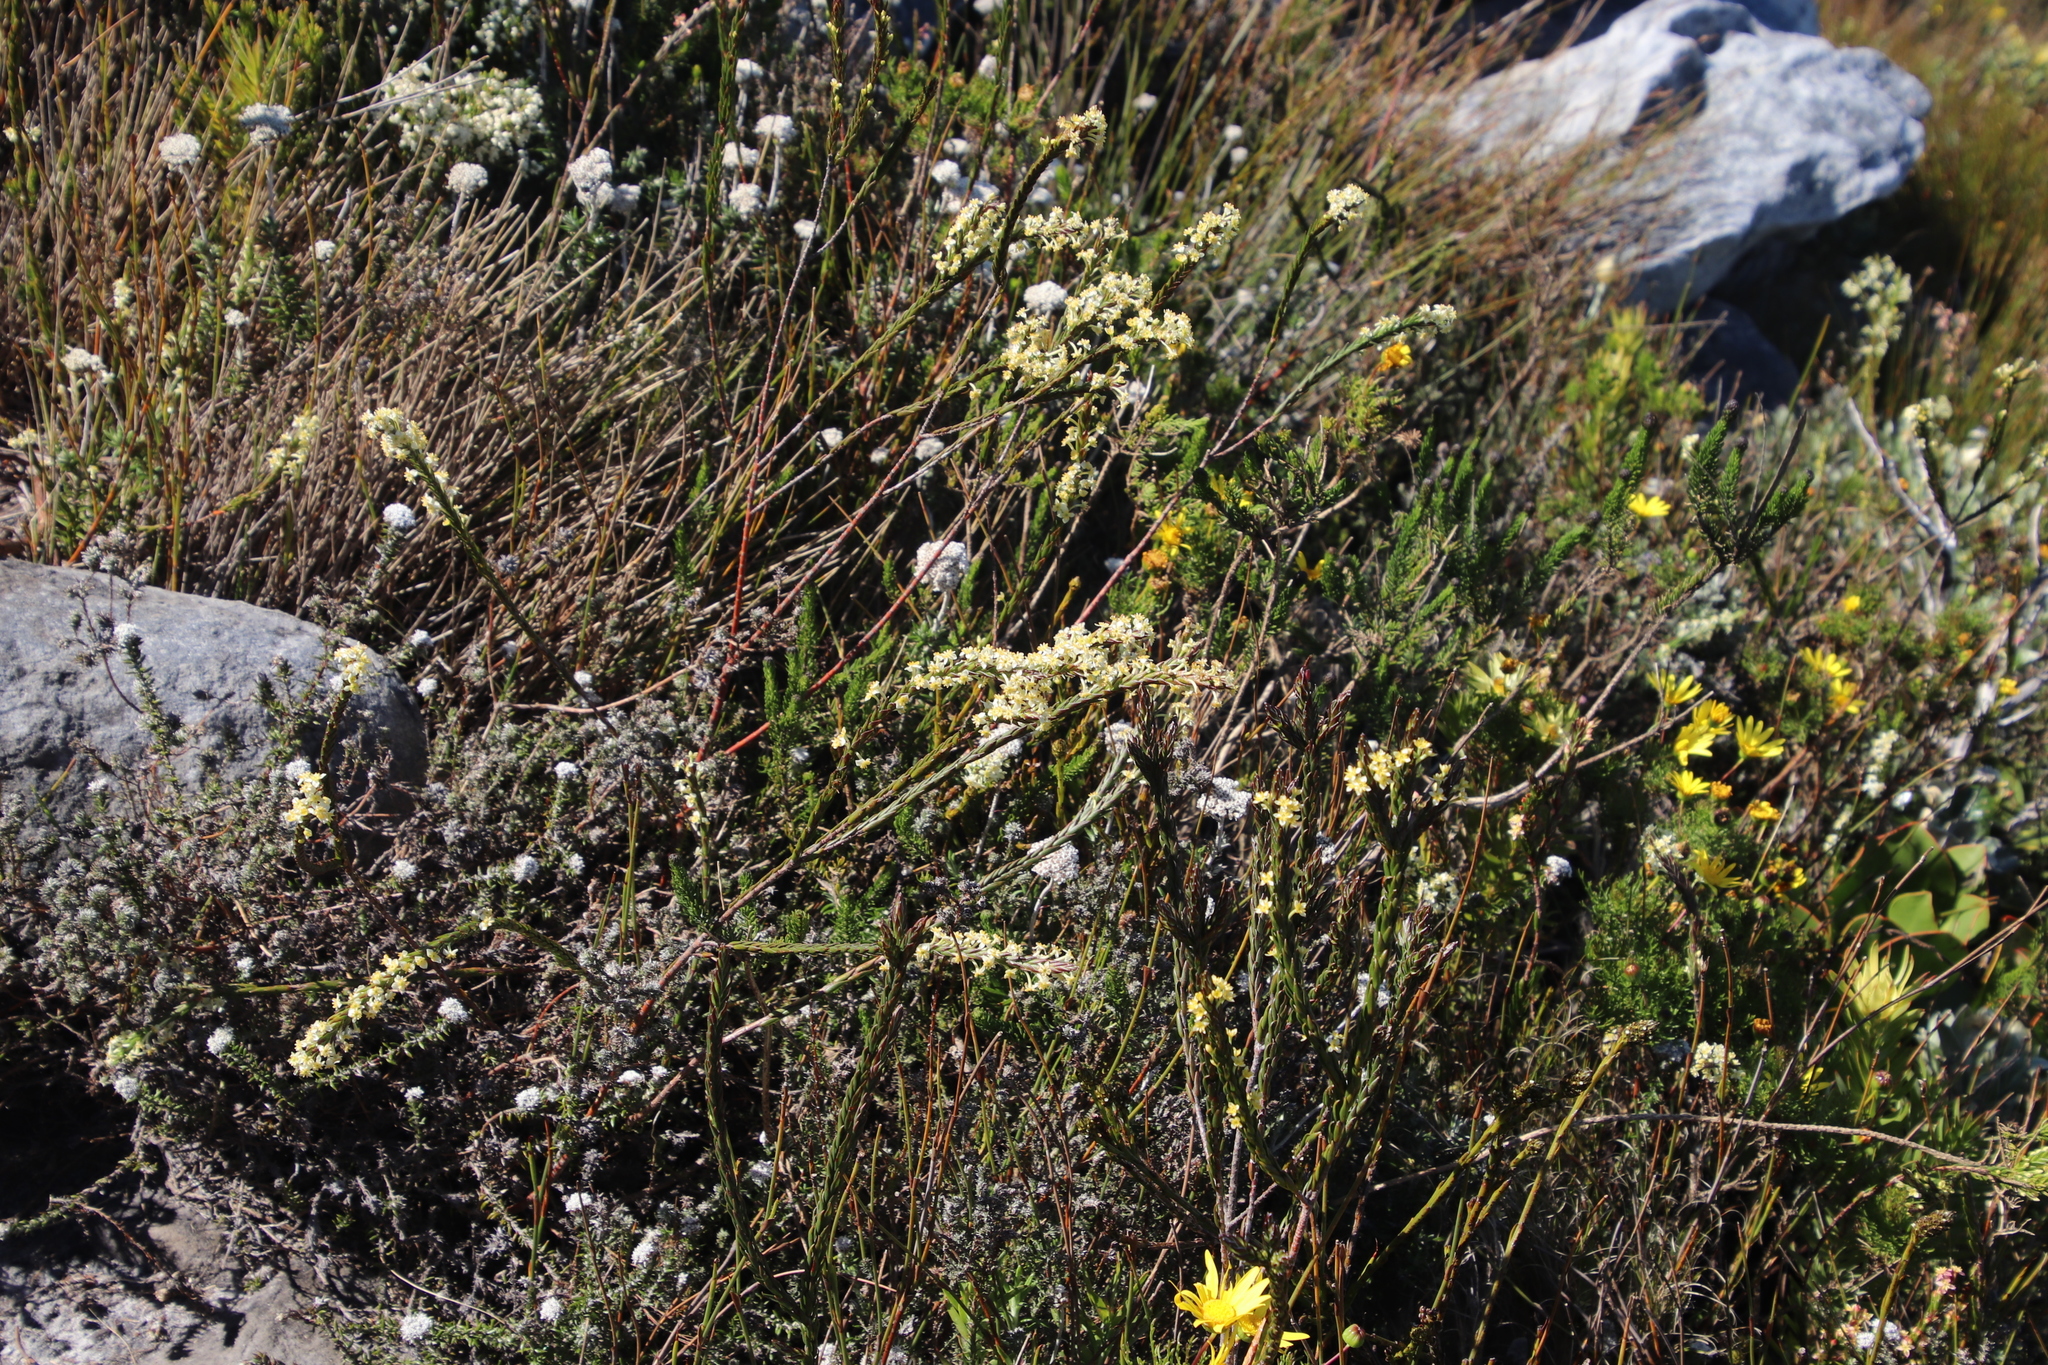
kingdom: Plantae
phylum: Tracheophyta
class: Magnoliopsida
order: Malvales
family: Thymelaeaceae
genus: Struthiola
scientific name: Struthiola ciliata
